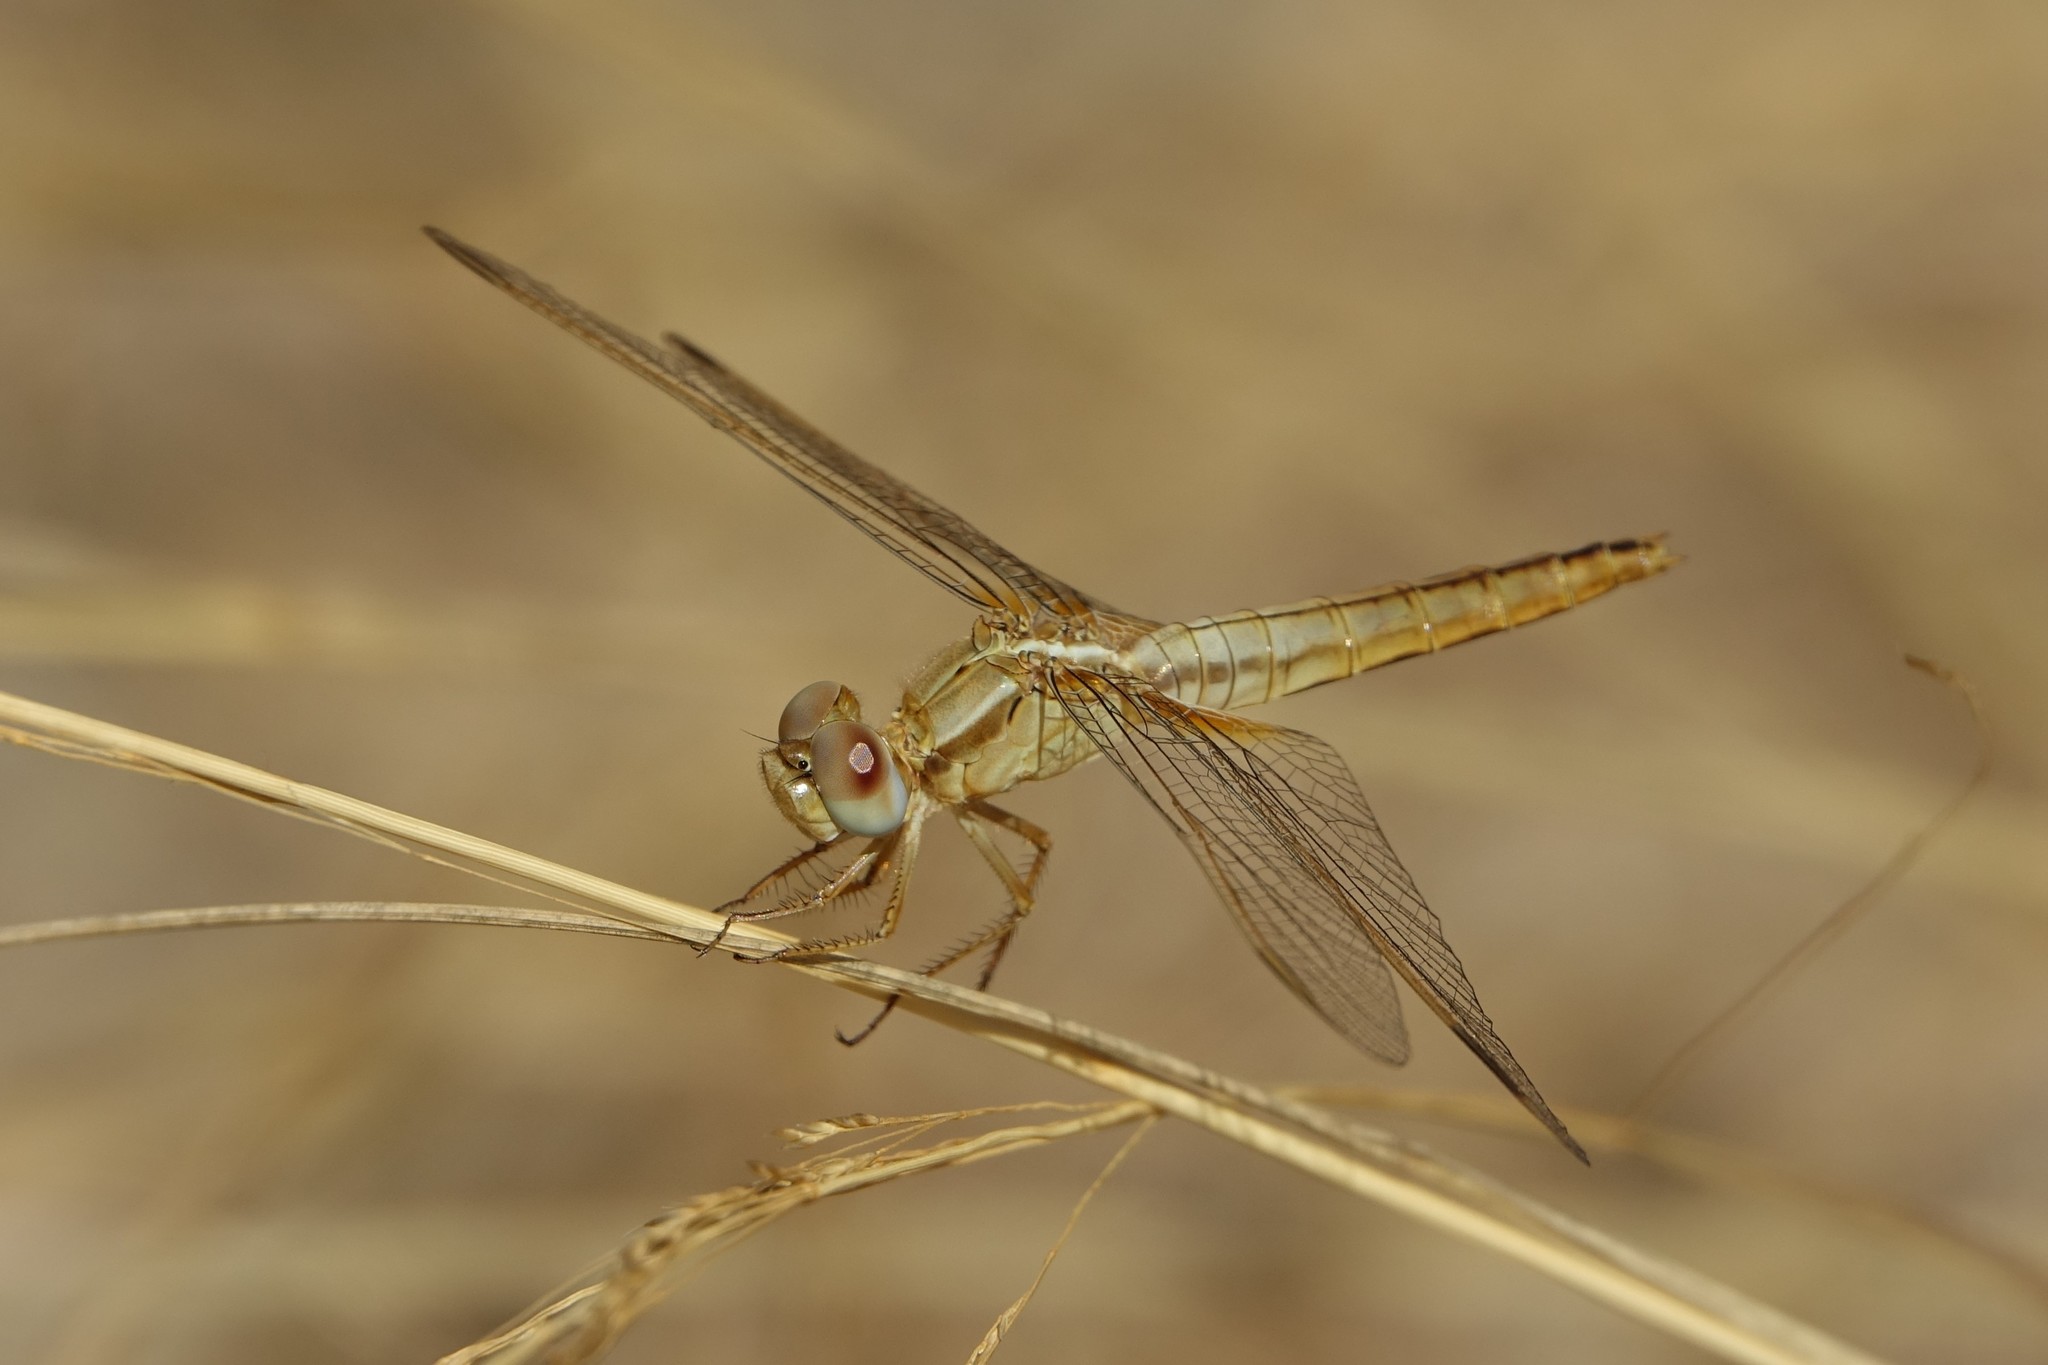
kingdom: Animalia
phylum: Arthropoda
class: Insecta
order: Odonata
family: Libellulidae
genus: Crocothemis
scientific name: Crocothemis erythraea
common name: Scarlet dragonfly
